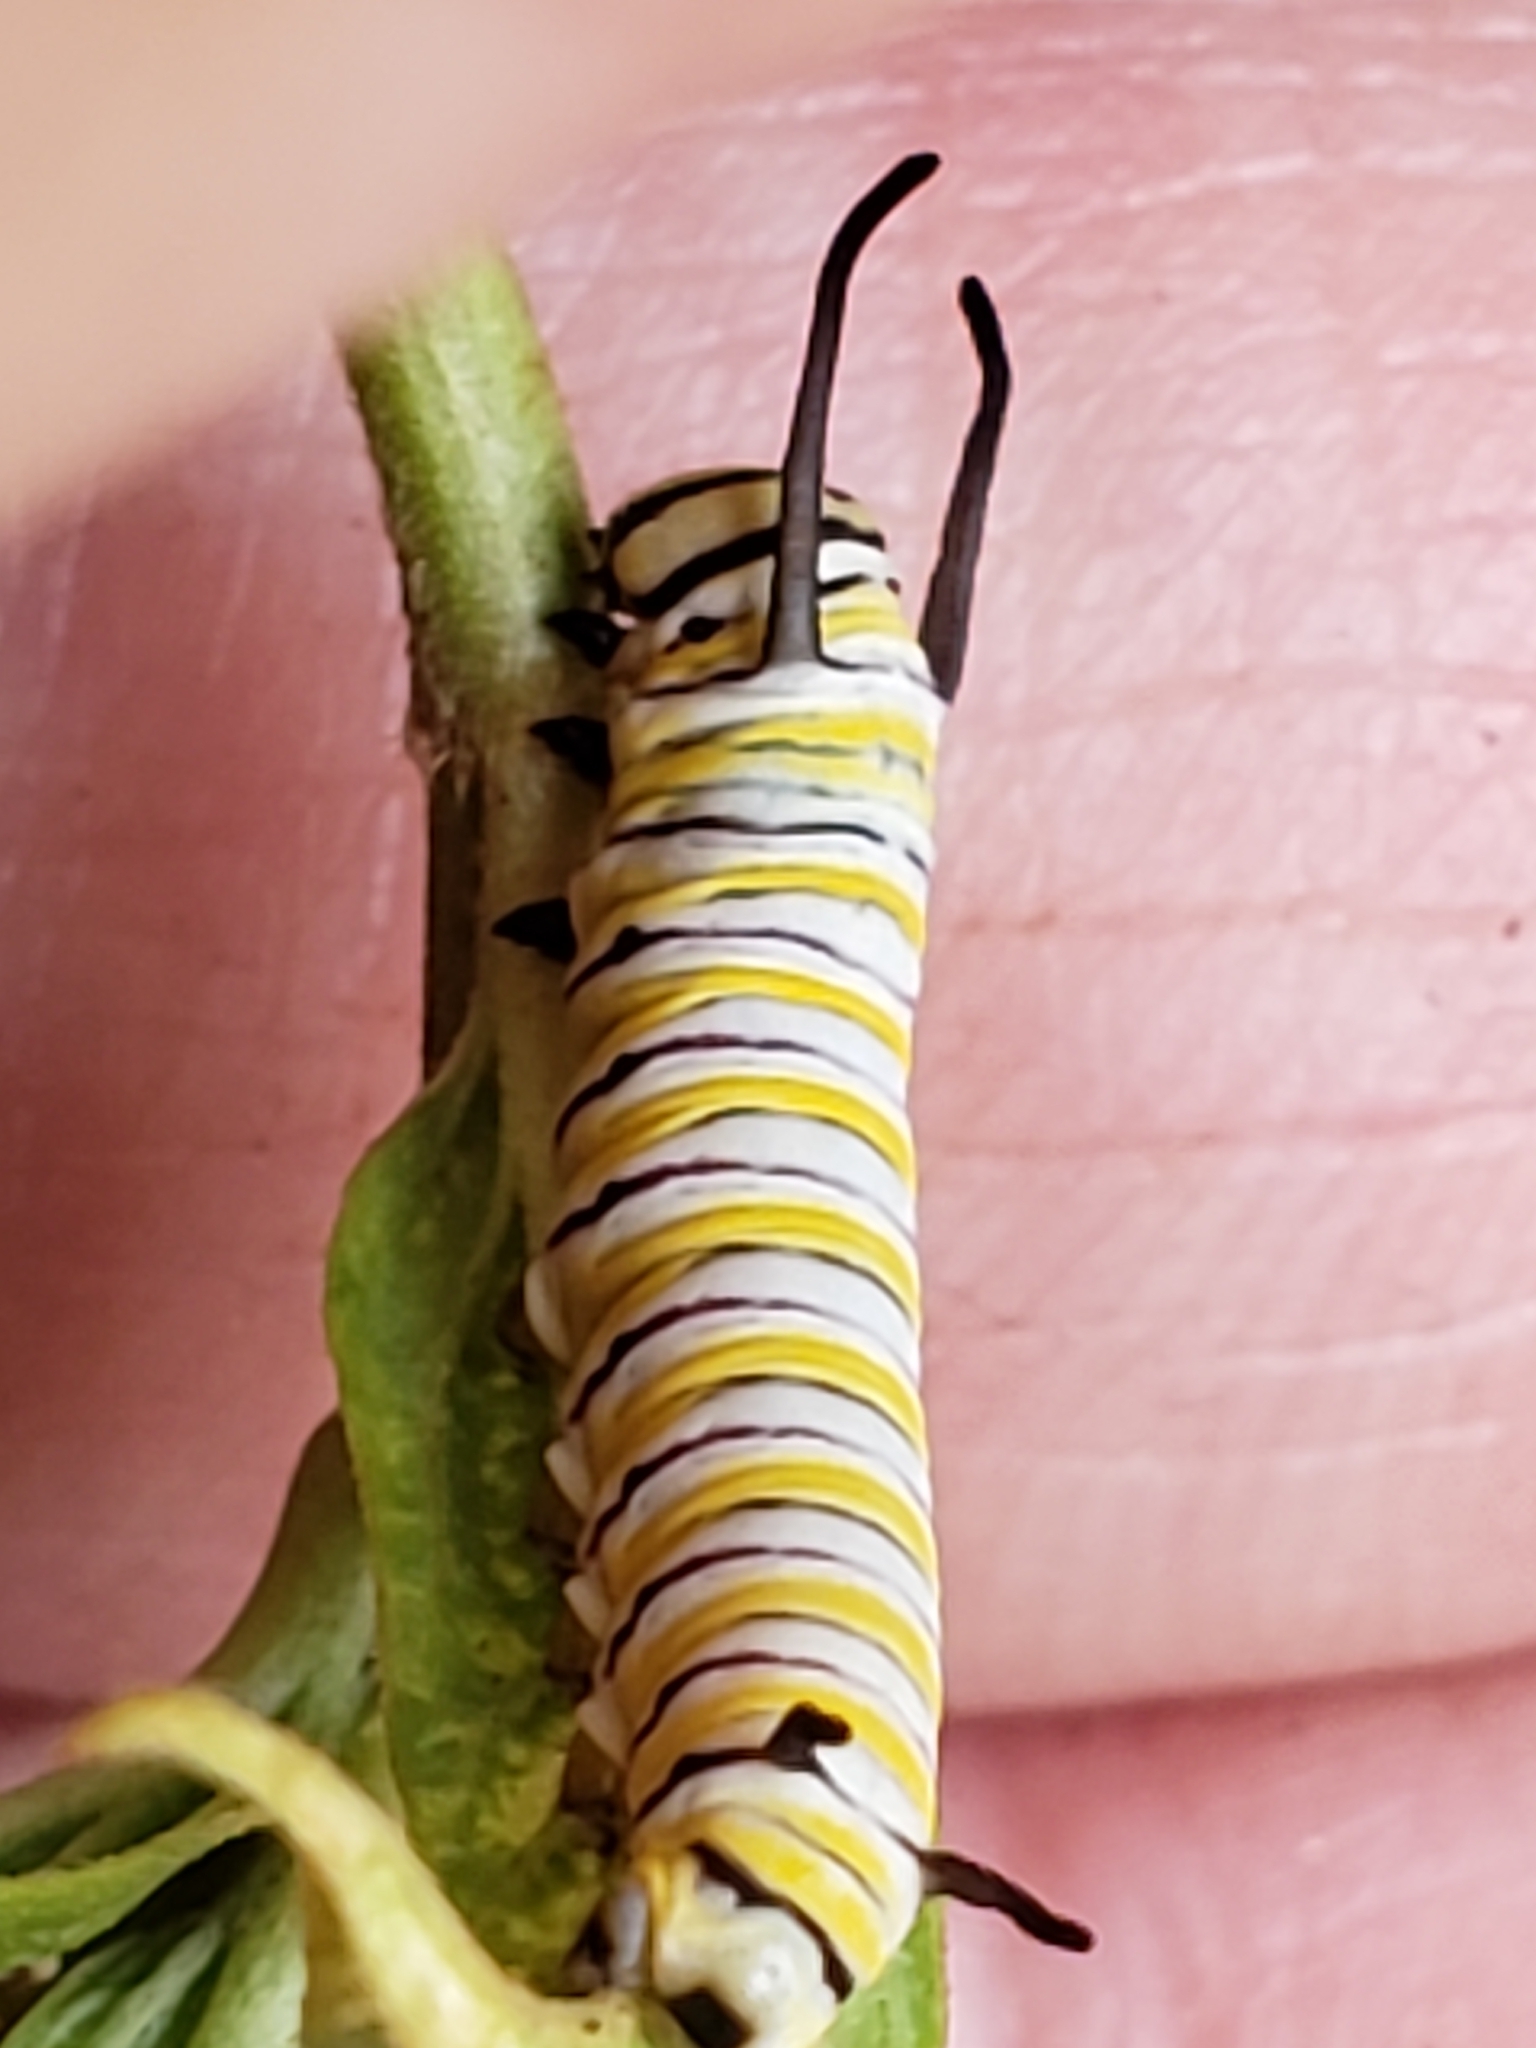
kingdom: Animalia
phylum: Arthropoda
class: Insecta
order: Lepidoptera
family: Nymphalidae
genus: Danaus
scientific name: Danaus plexippus
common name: Monarch
